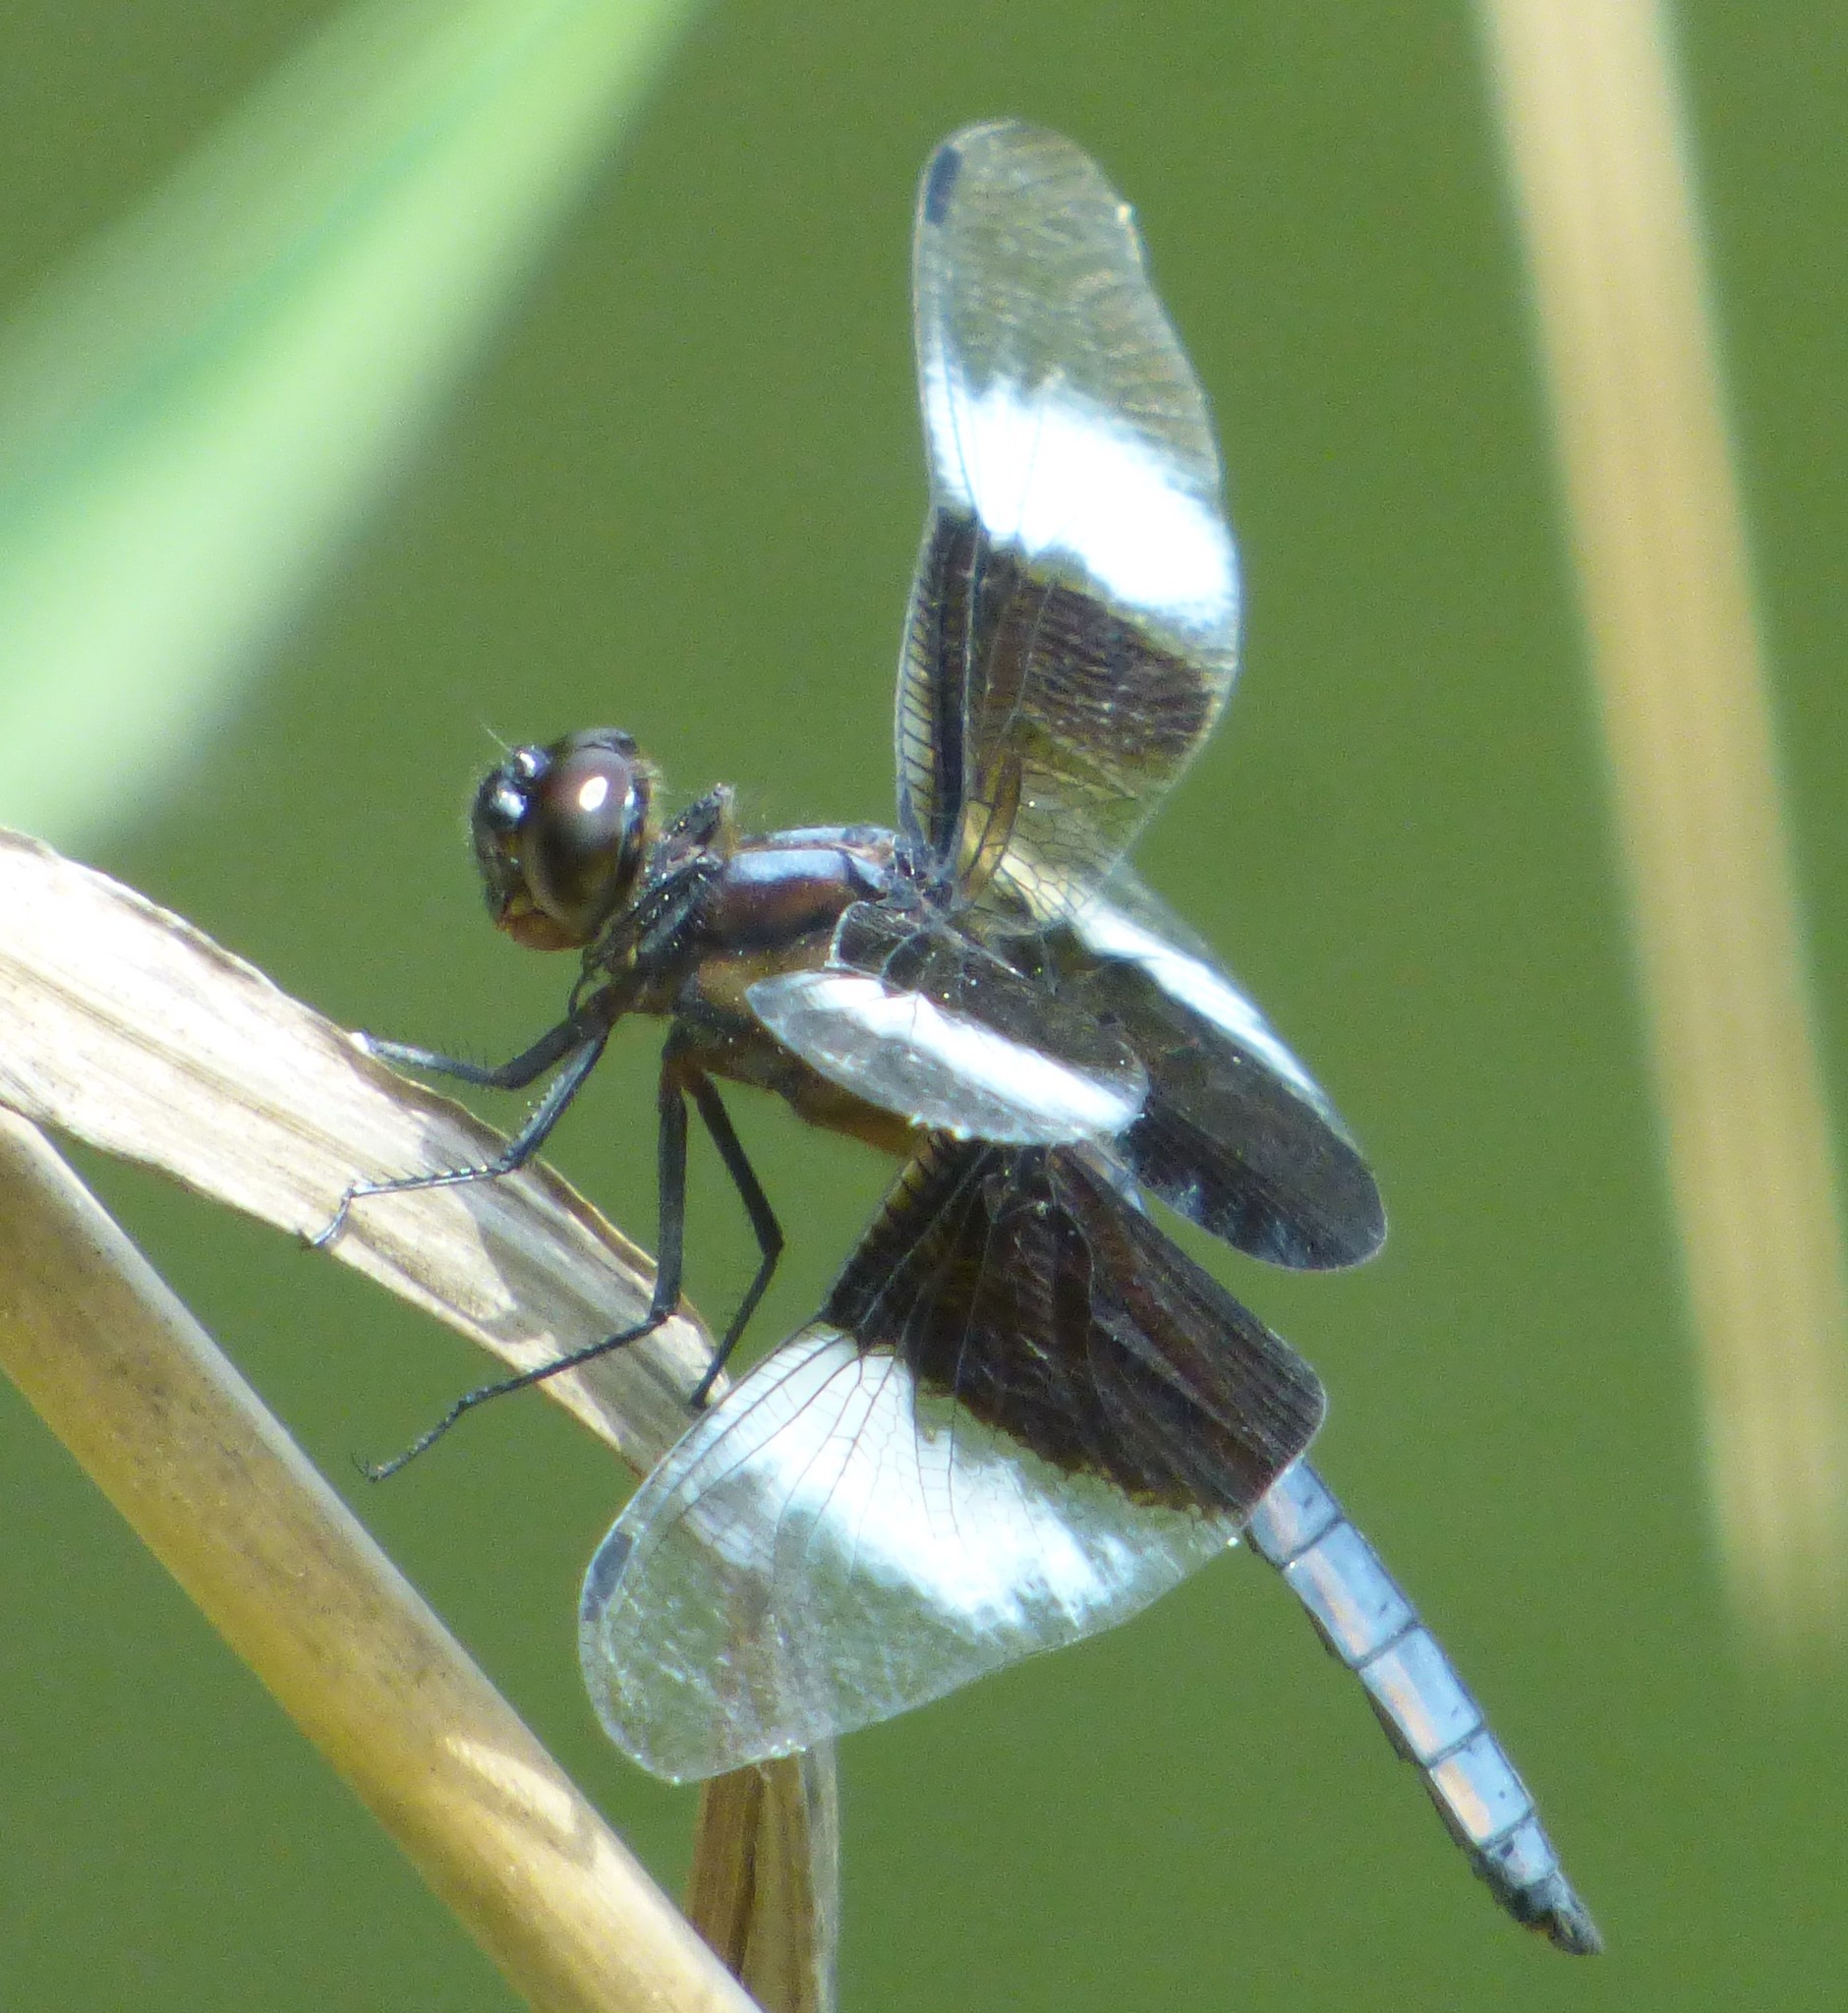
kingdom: Animalia
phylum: Arthropoda
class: Insecta
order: Odonata
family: Libellulidae
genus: Libellula
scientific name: Libellula luctuosa
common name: Widow skimmer
